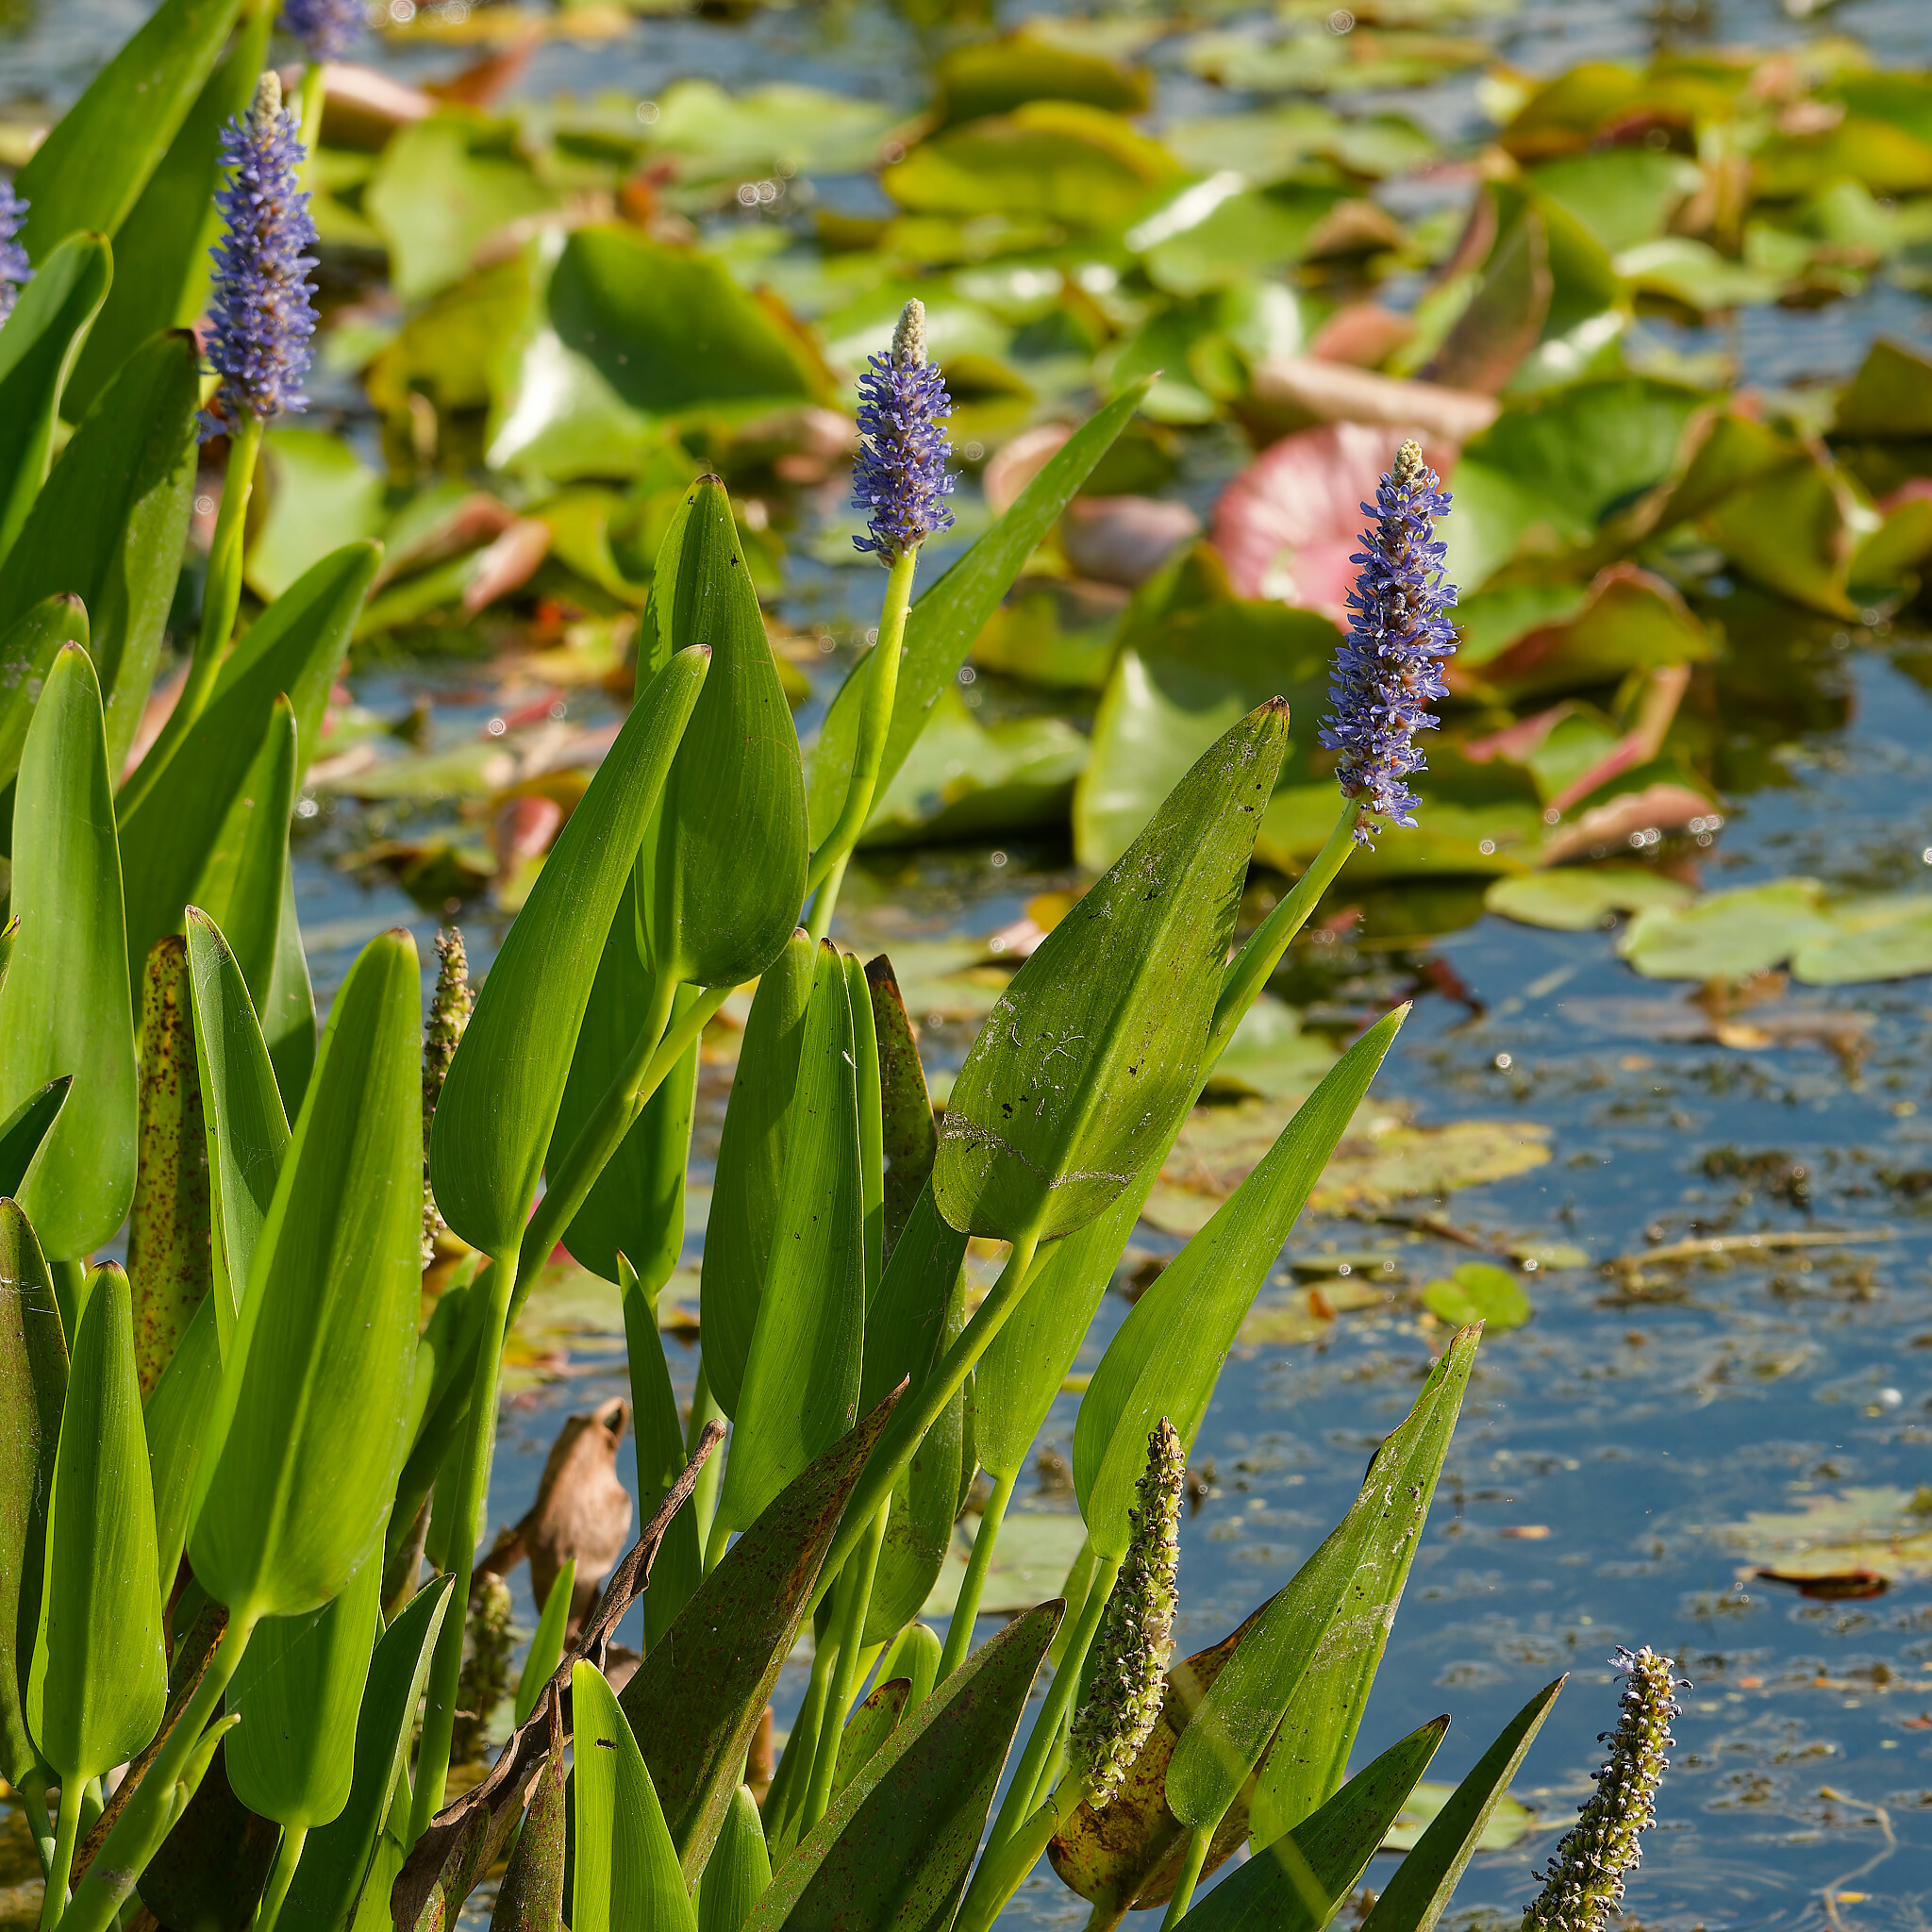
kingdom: Plantae
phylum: Tracheophyta
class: Liliopsida
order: Commelinales
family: Pontederiaceae
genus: Pontederia
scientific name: Pontederia cordata
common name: Pickerelweed
